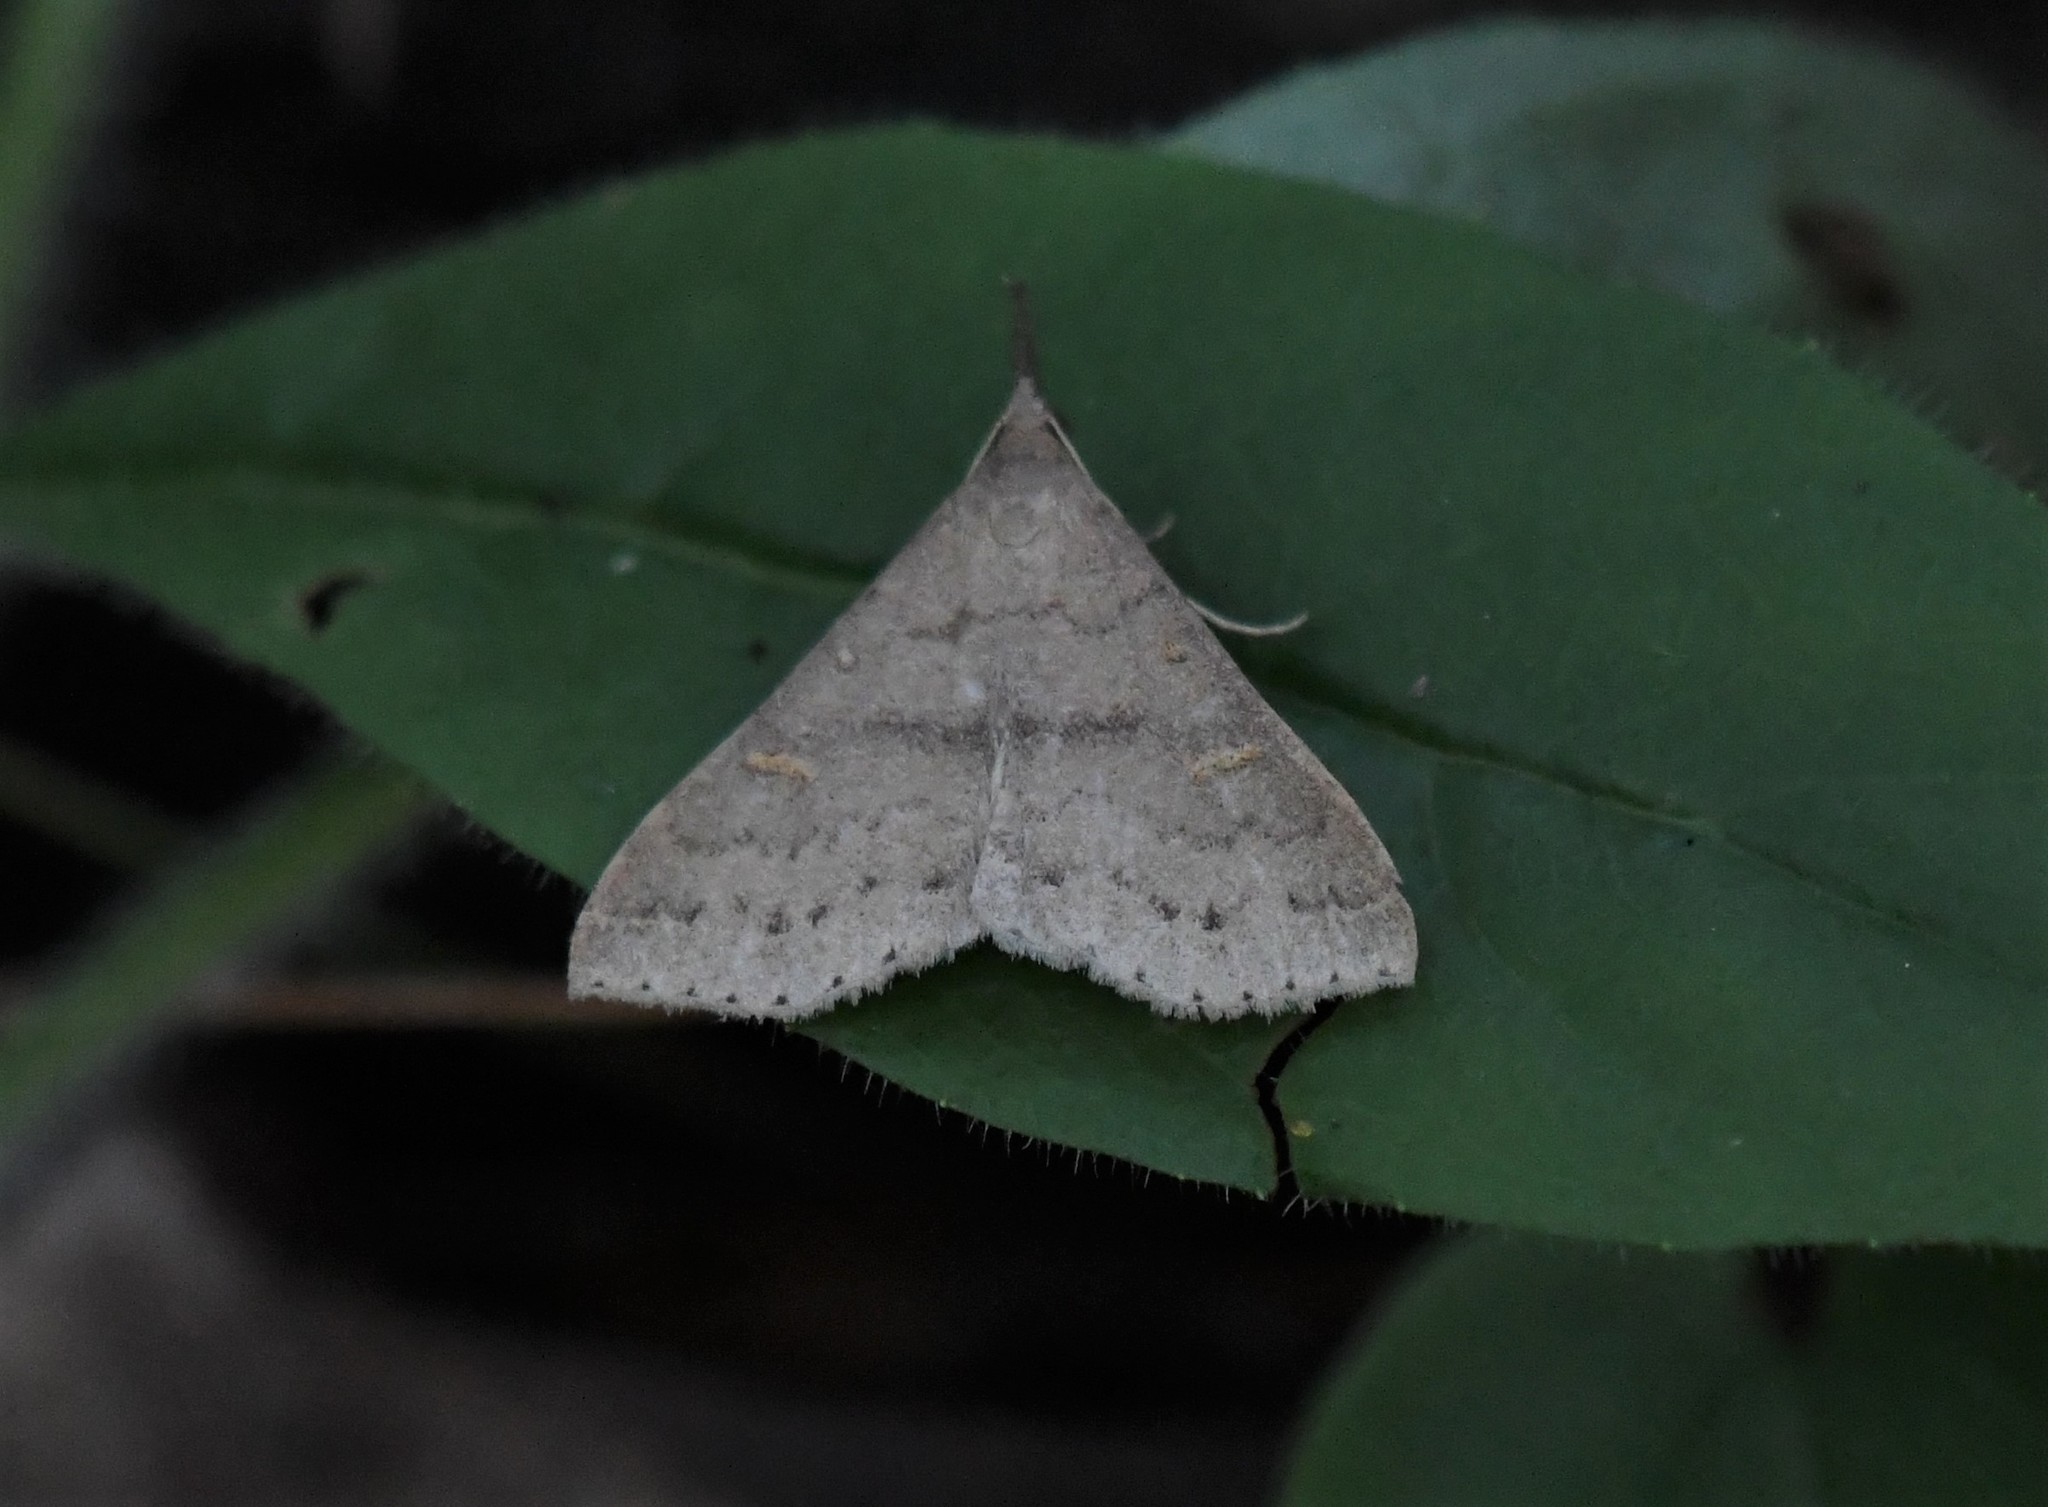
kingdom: Animalia
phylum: Arthropoda
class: Insecta
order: Lepidoptera
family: Erebidae
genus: Renia
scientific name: Renia adspergillus
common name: Speckled renia moth
